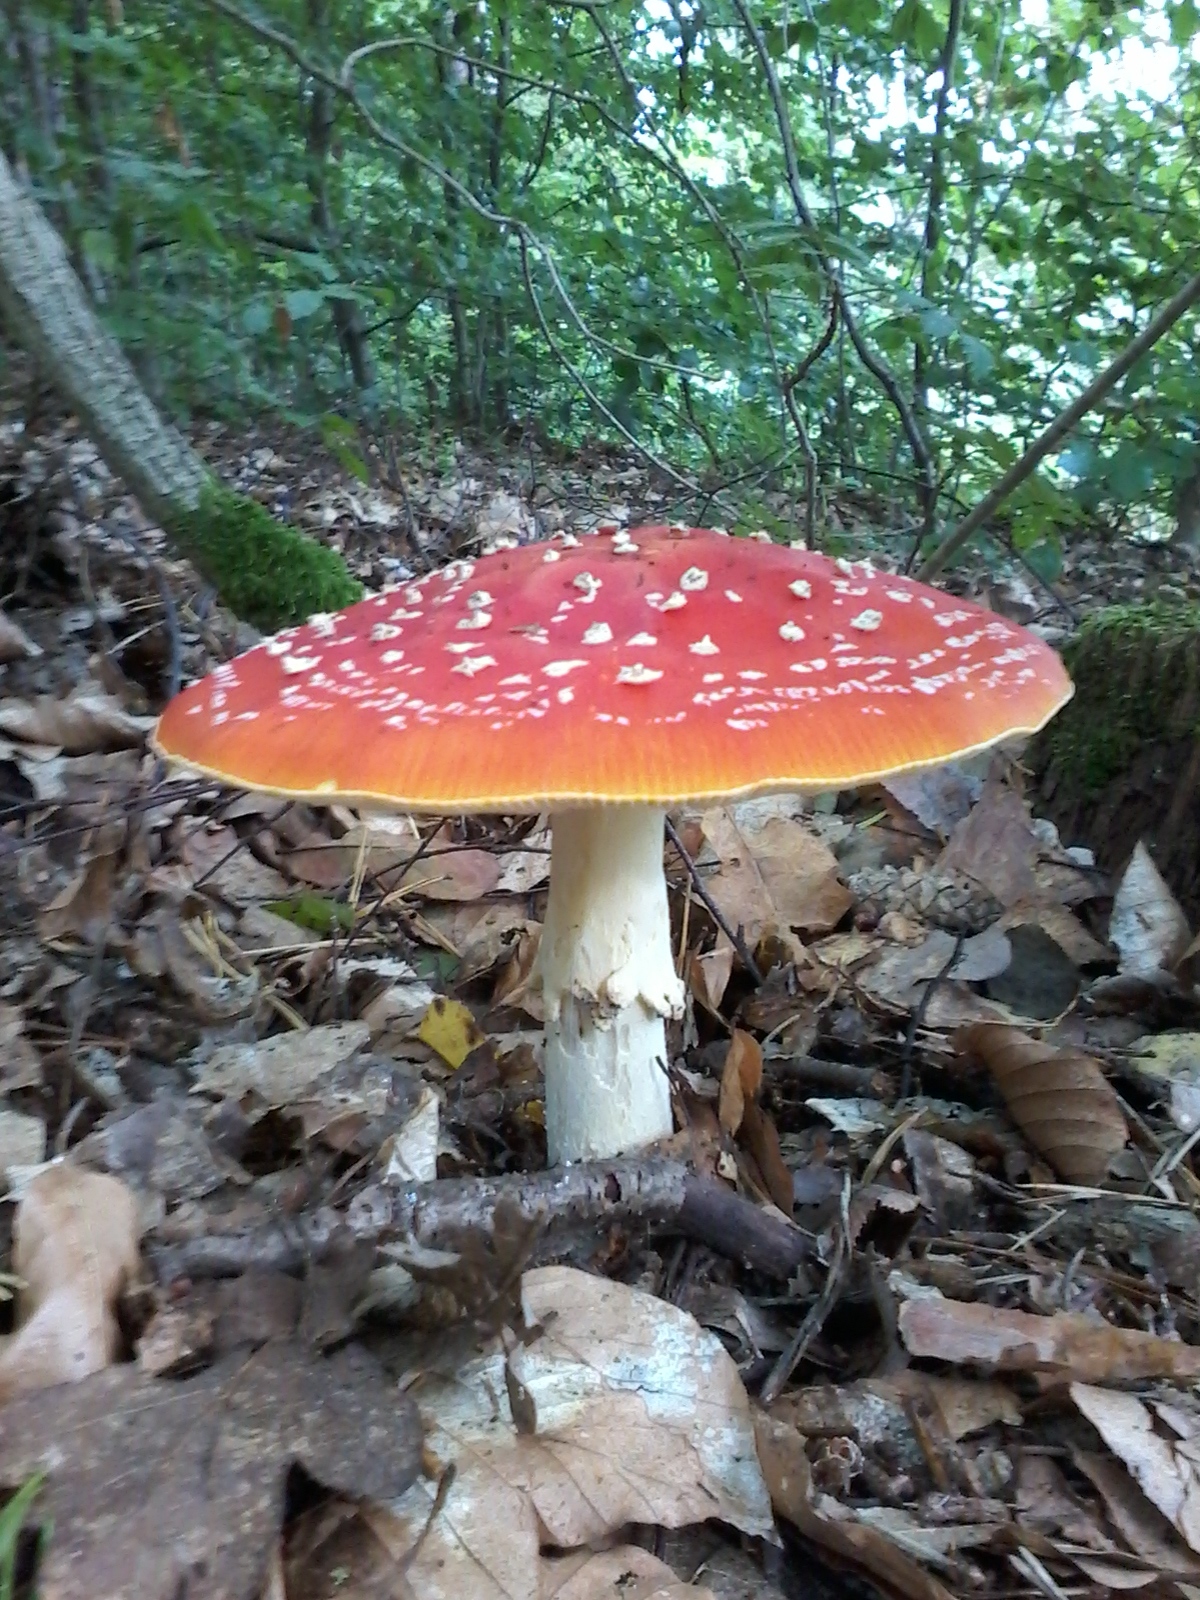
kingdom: Fungi
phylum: Basidiomycota
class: Agaricomycetes
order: Agaricales
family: Amanitaceae
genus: Amanita
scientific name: Amanita muscaria
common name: Fly agaric
